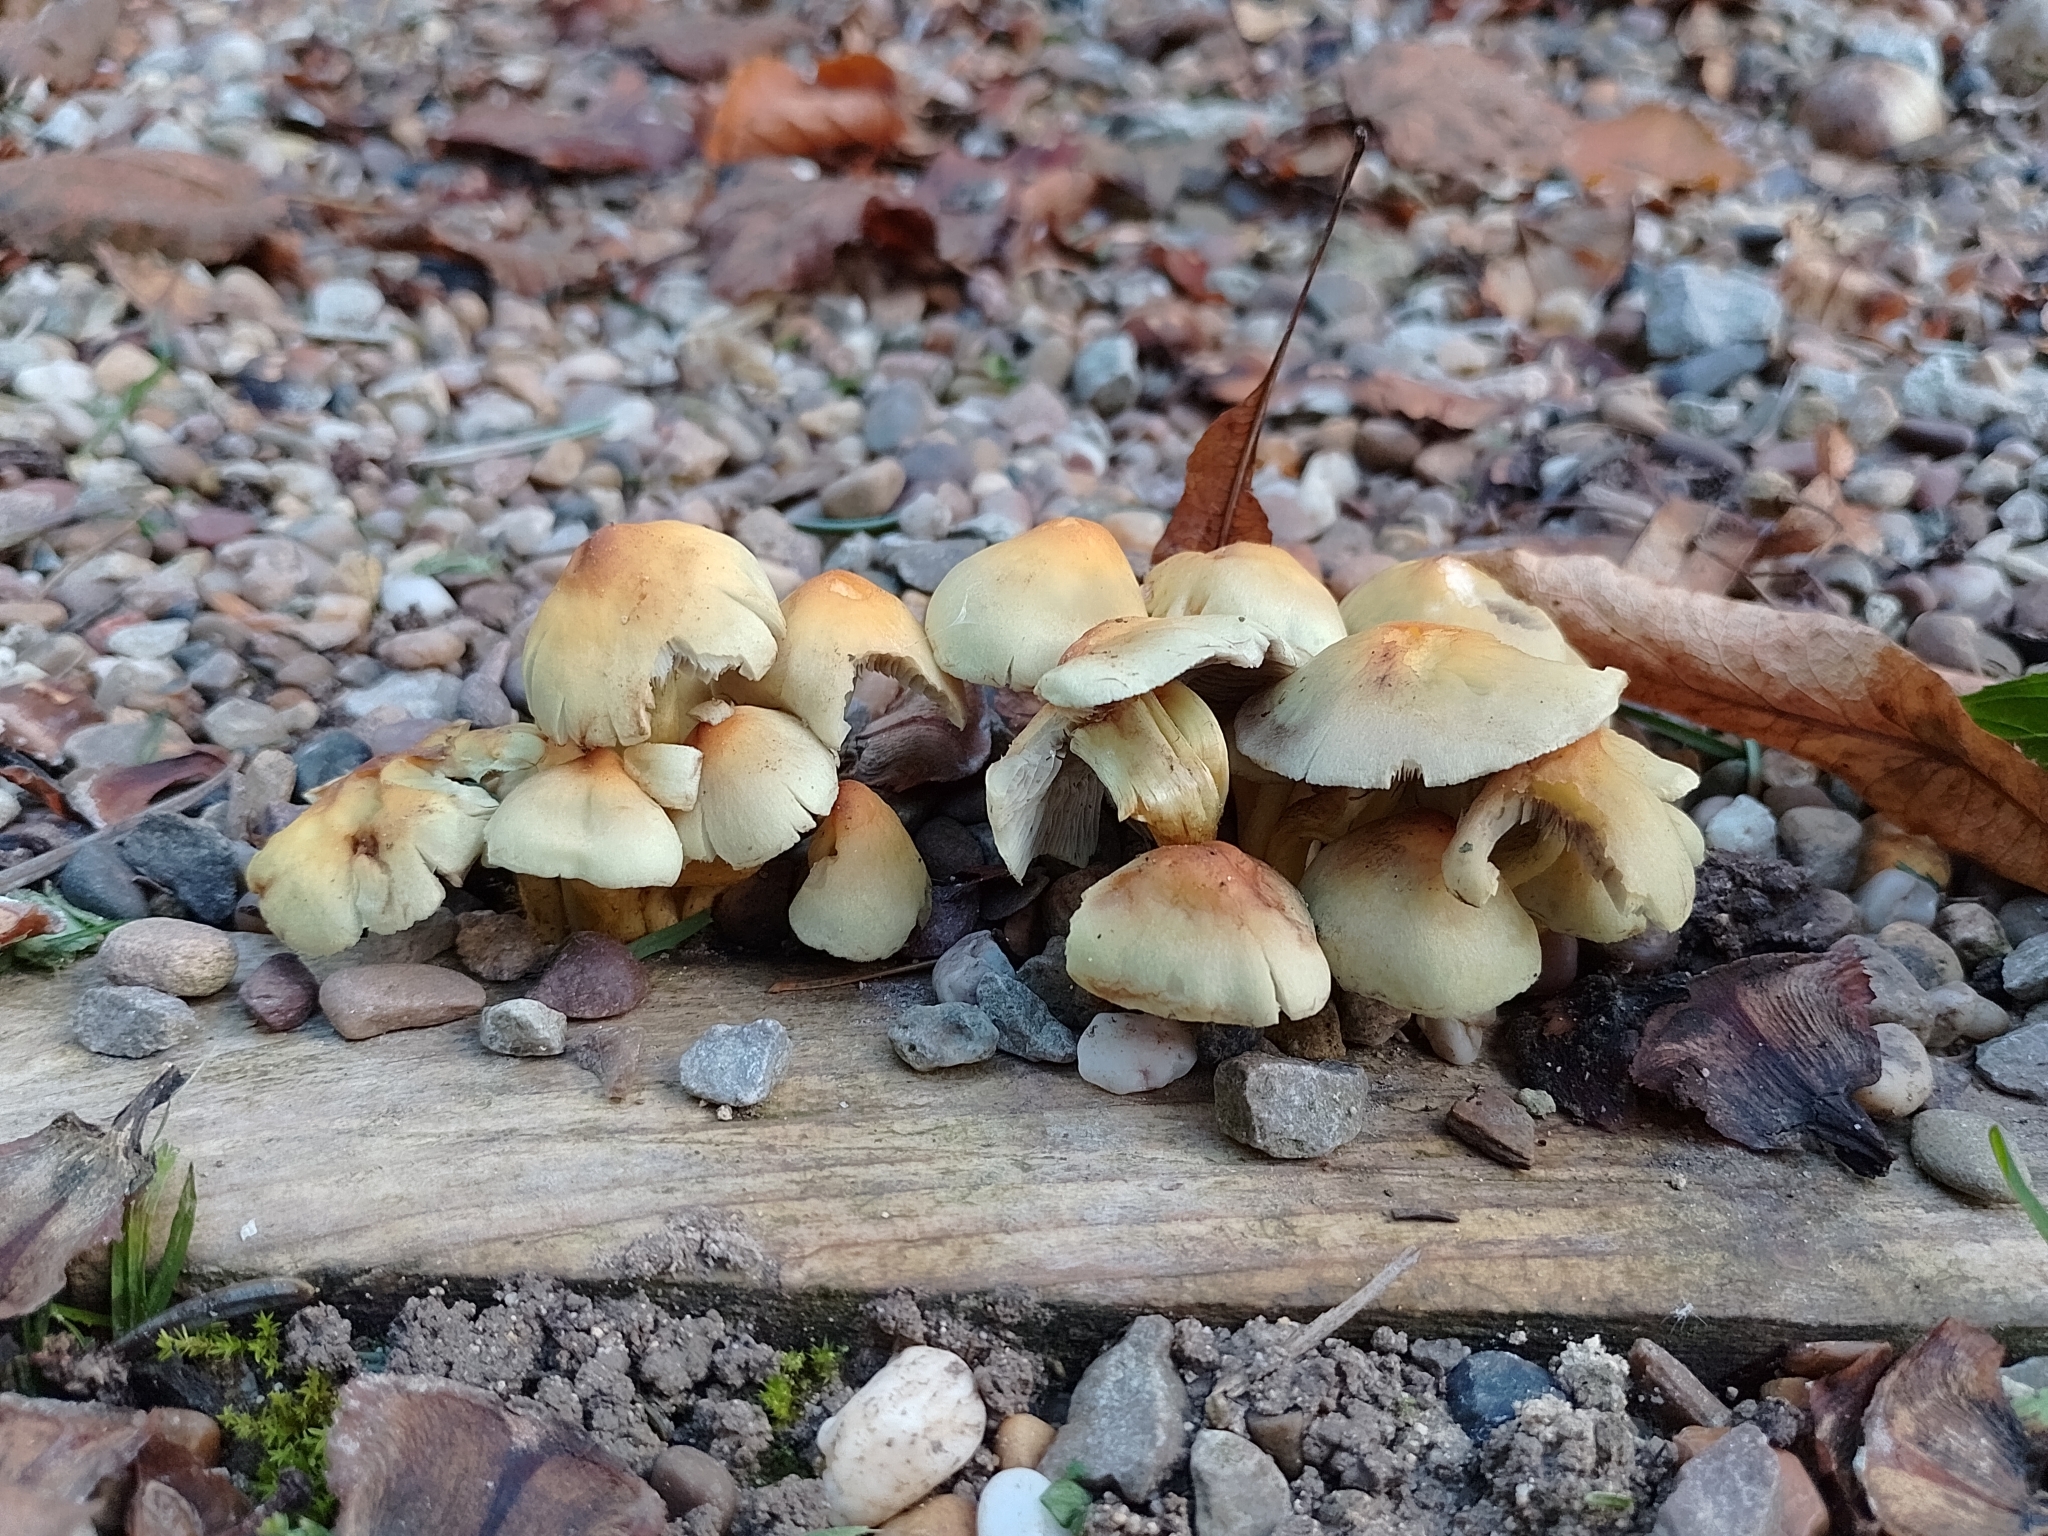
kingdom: Fungi
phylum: Basidiomycota
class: Agaricomycetes
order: Agaricales
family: Strophariaceae
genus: Hypholoma
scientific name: Hypholoma fasciculare
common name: Sulphur tuft
